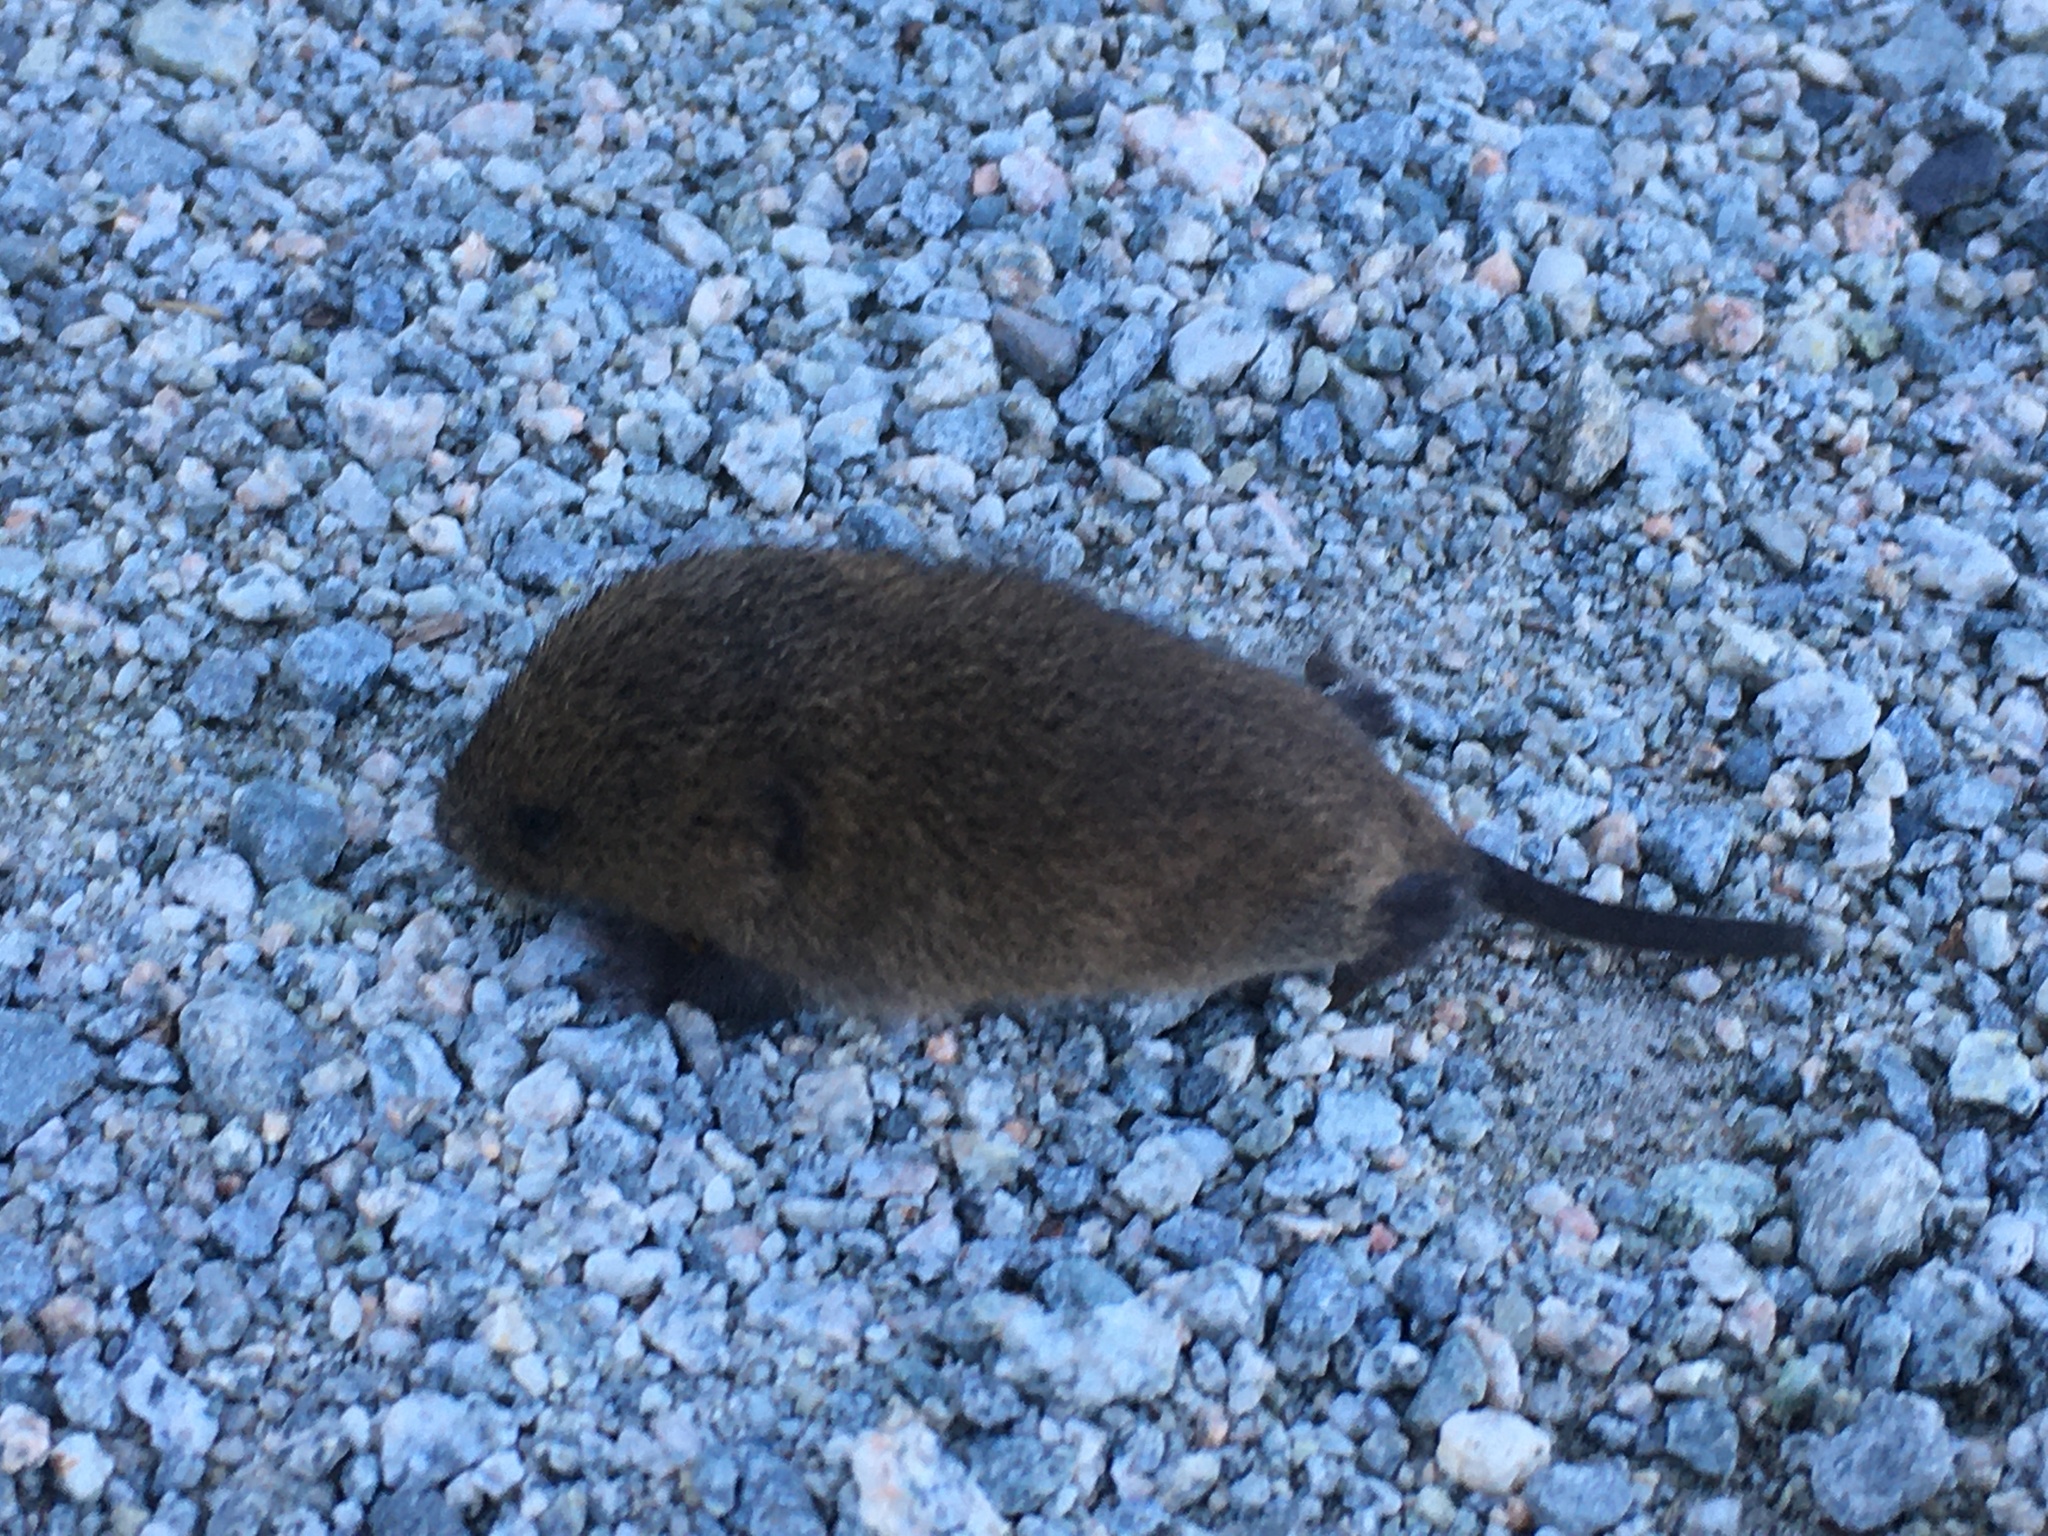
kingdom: Animalia
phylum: Chordata
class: Mammalia
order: Rodentia
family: Cricetidae
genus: Microtus
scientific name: Microtus townsendii
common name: Townsend's vole
